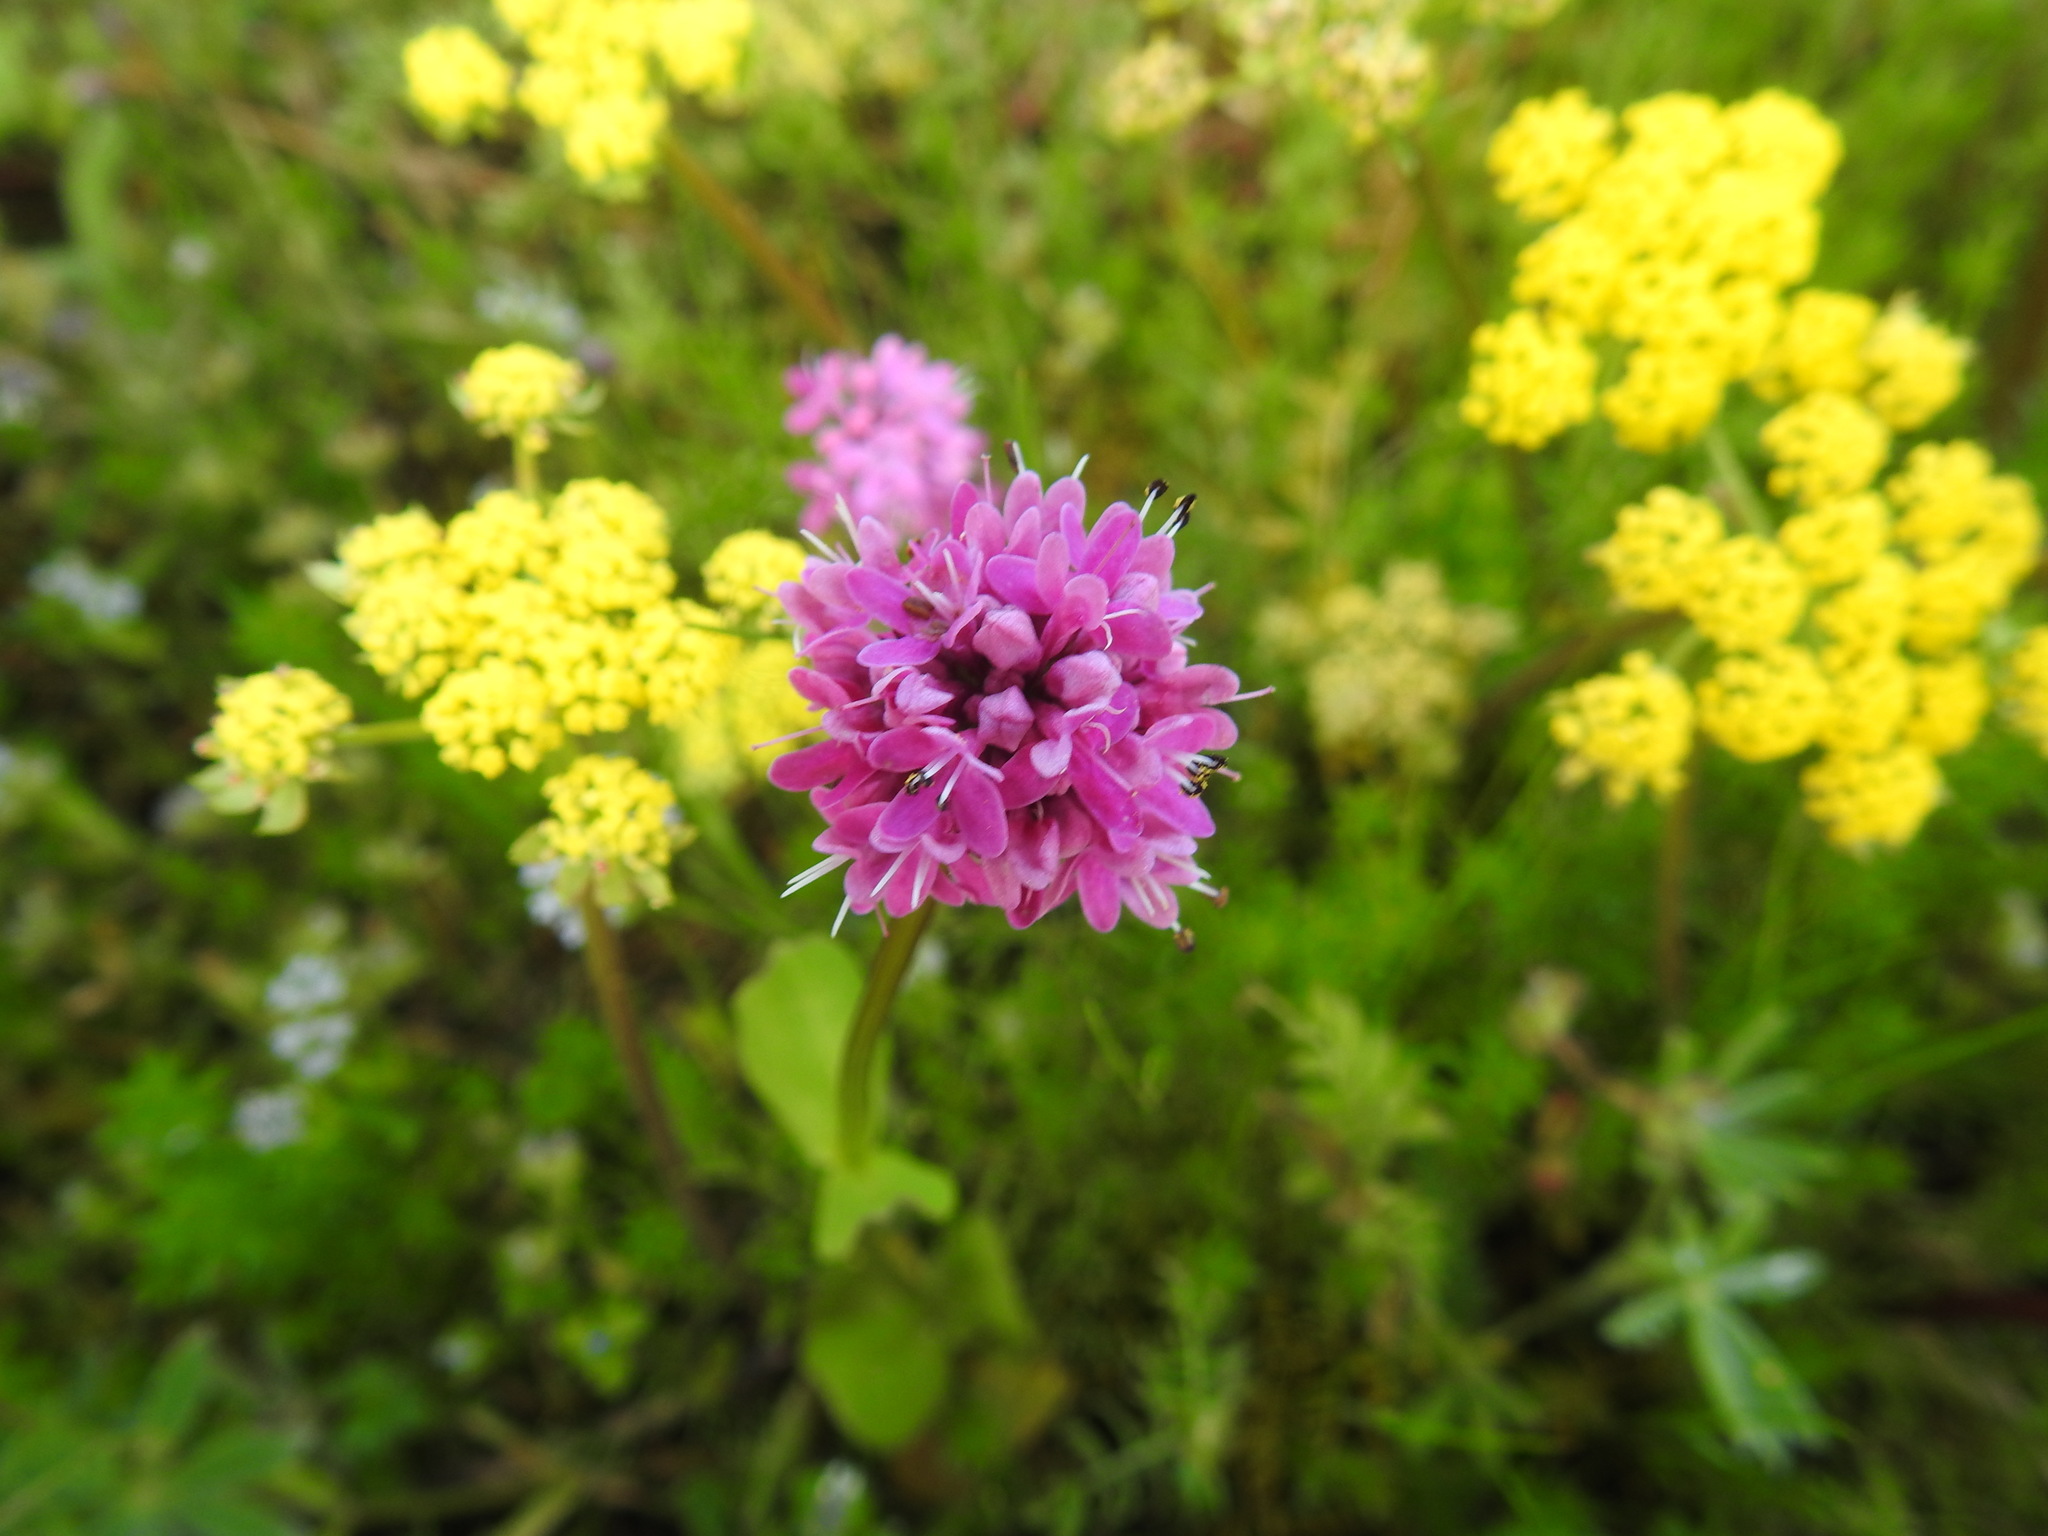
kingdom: Plantae
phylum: Tracheophyta
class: Magnoliopsida
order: Dipsacales
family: Caprifoliaceae
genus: Plectritis
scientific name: Plectritis congesta
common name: Pink plectritis
